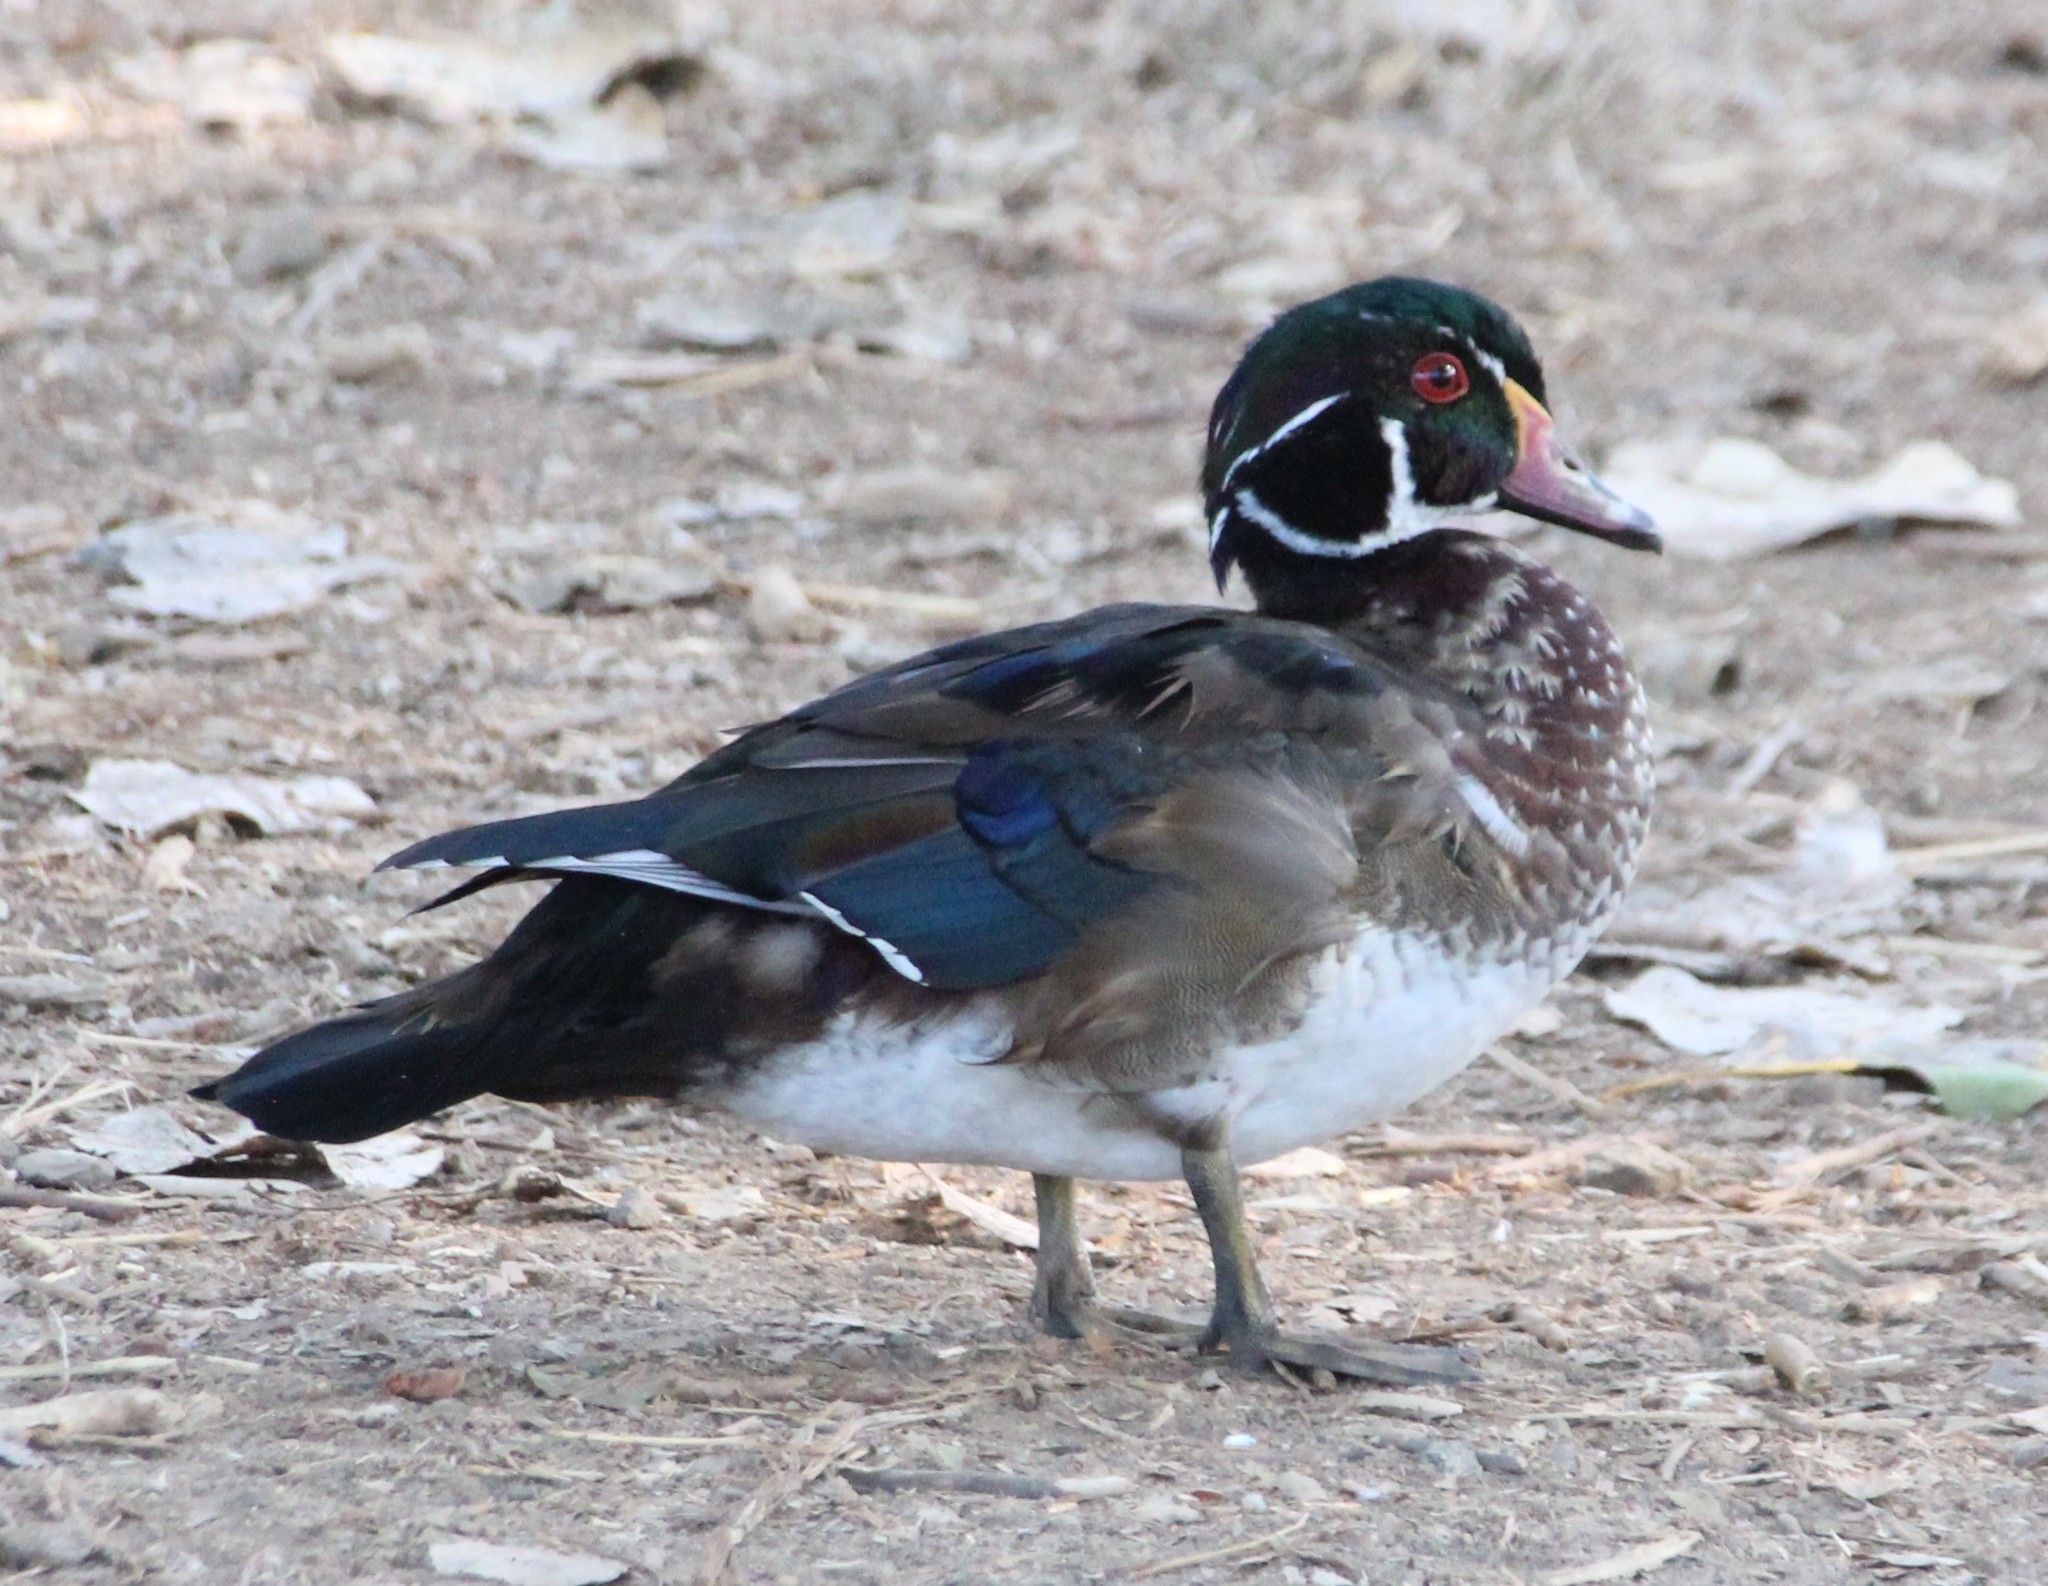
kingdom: Animalia
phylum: Chordata
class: Aves
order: Anseriformes
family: Anatidae
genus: Aix
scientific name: Aix sponsa
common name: Wood duck
